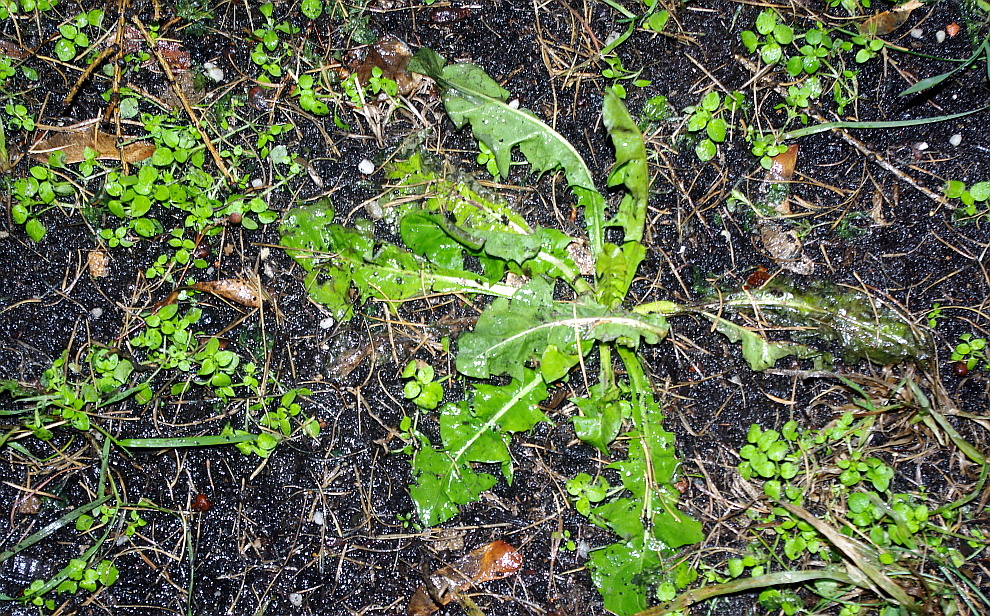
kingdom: Plantae
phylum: Tracheophyta
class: Magnoliopsida
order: Asterales
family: Asteraceae
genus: Taraxacum
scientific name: Taraxacum officinale
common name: Common dandelion
